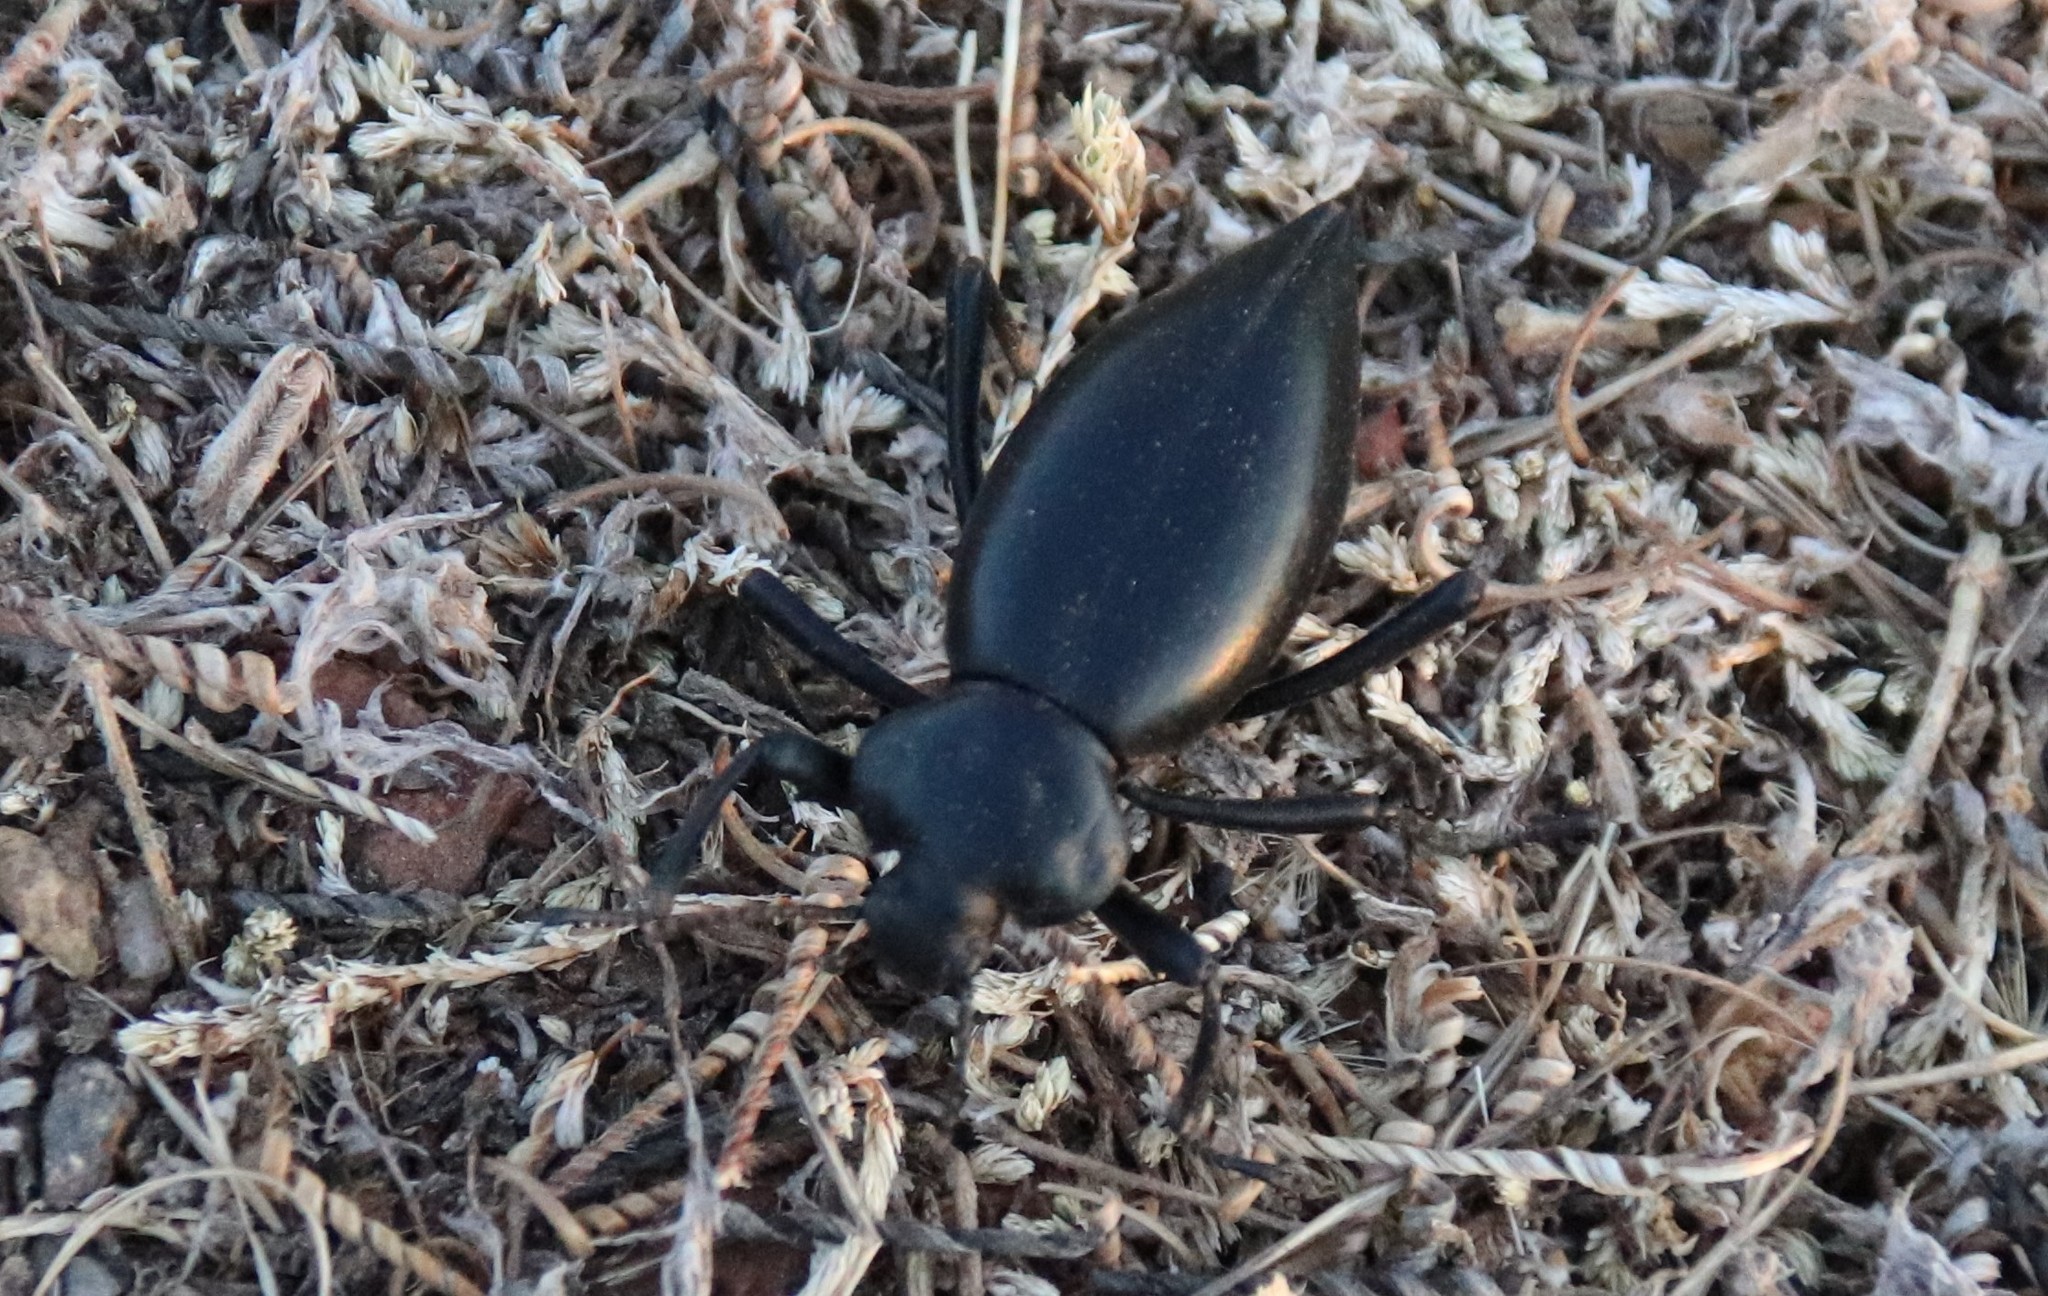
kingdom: Animalia
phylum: Arthropoda
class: Insecta
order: Coleoptera
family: Tenebrionidae
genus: Eleodes
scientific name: Eleodes acuticauda
